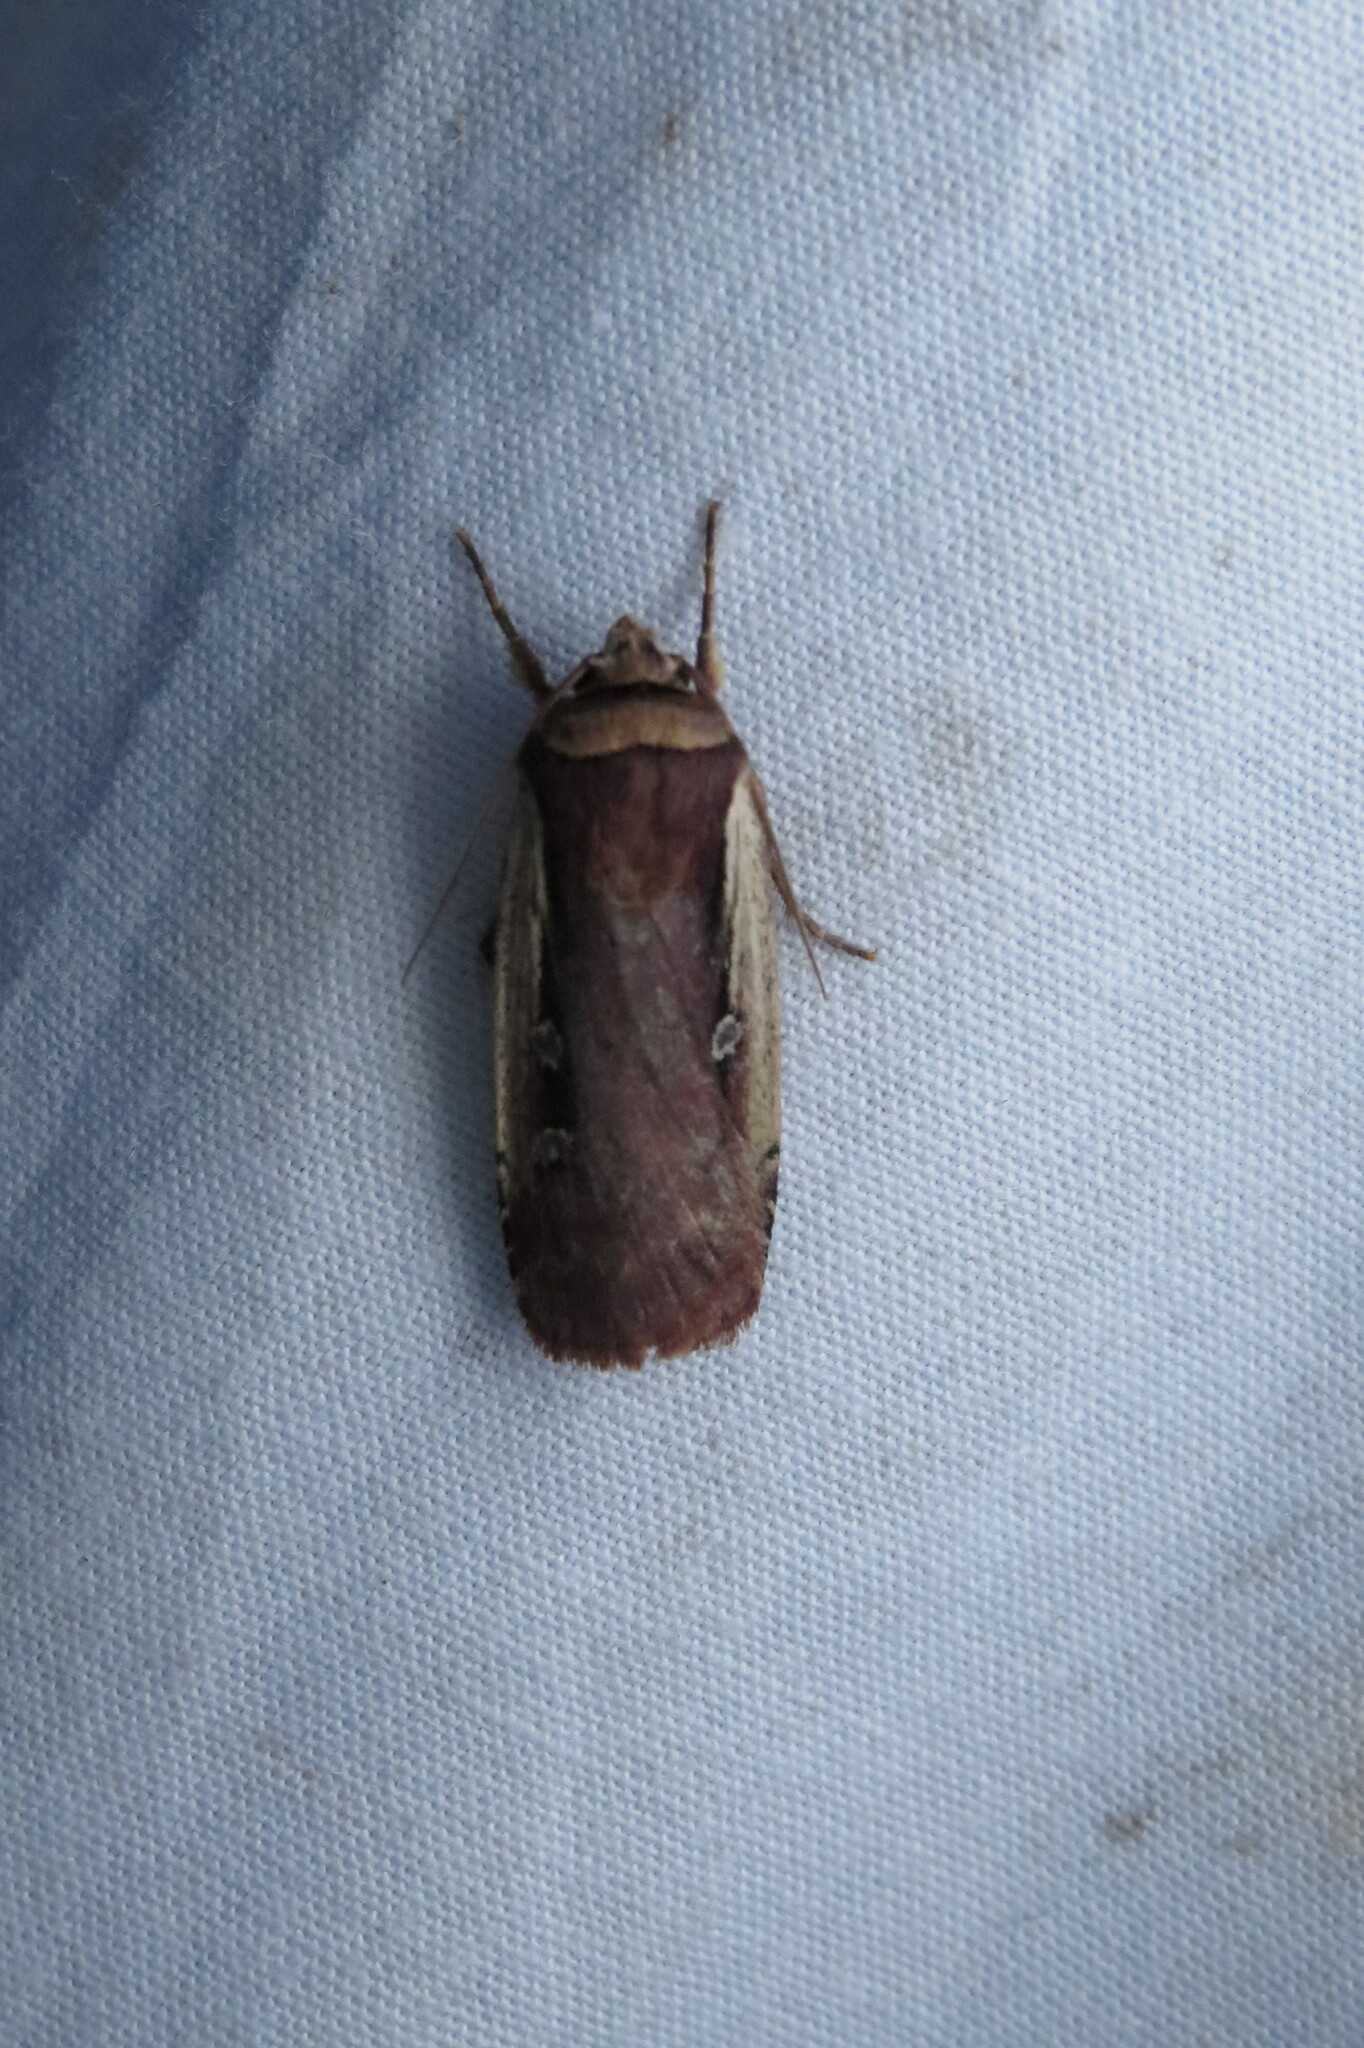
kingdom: Animalia
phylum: Arthropoda
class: Insecta
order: Lepidoptera
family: Noctuidae
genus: Ochropleura
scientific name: Ochropleura implecta
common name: Flame-shouldered dart
